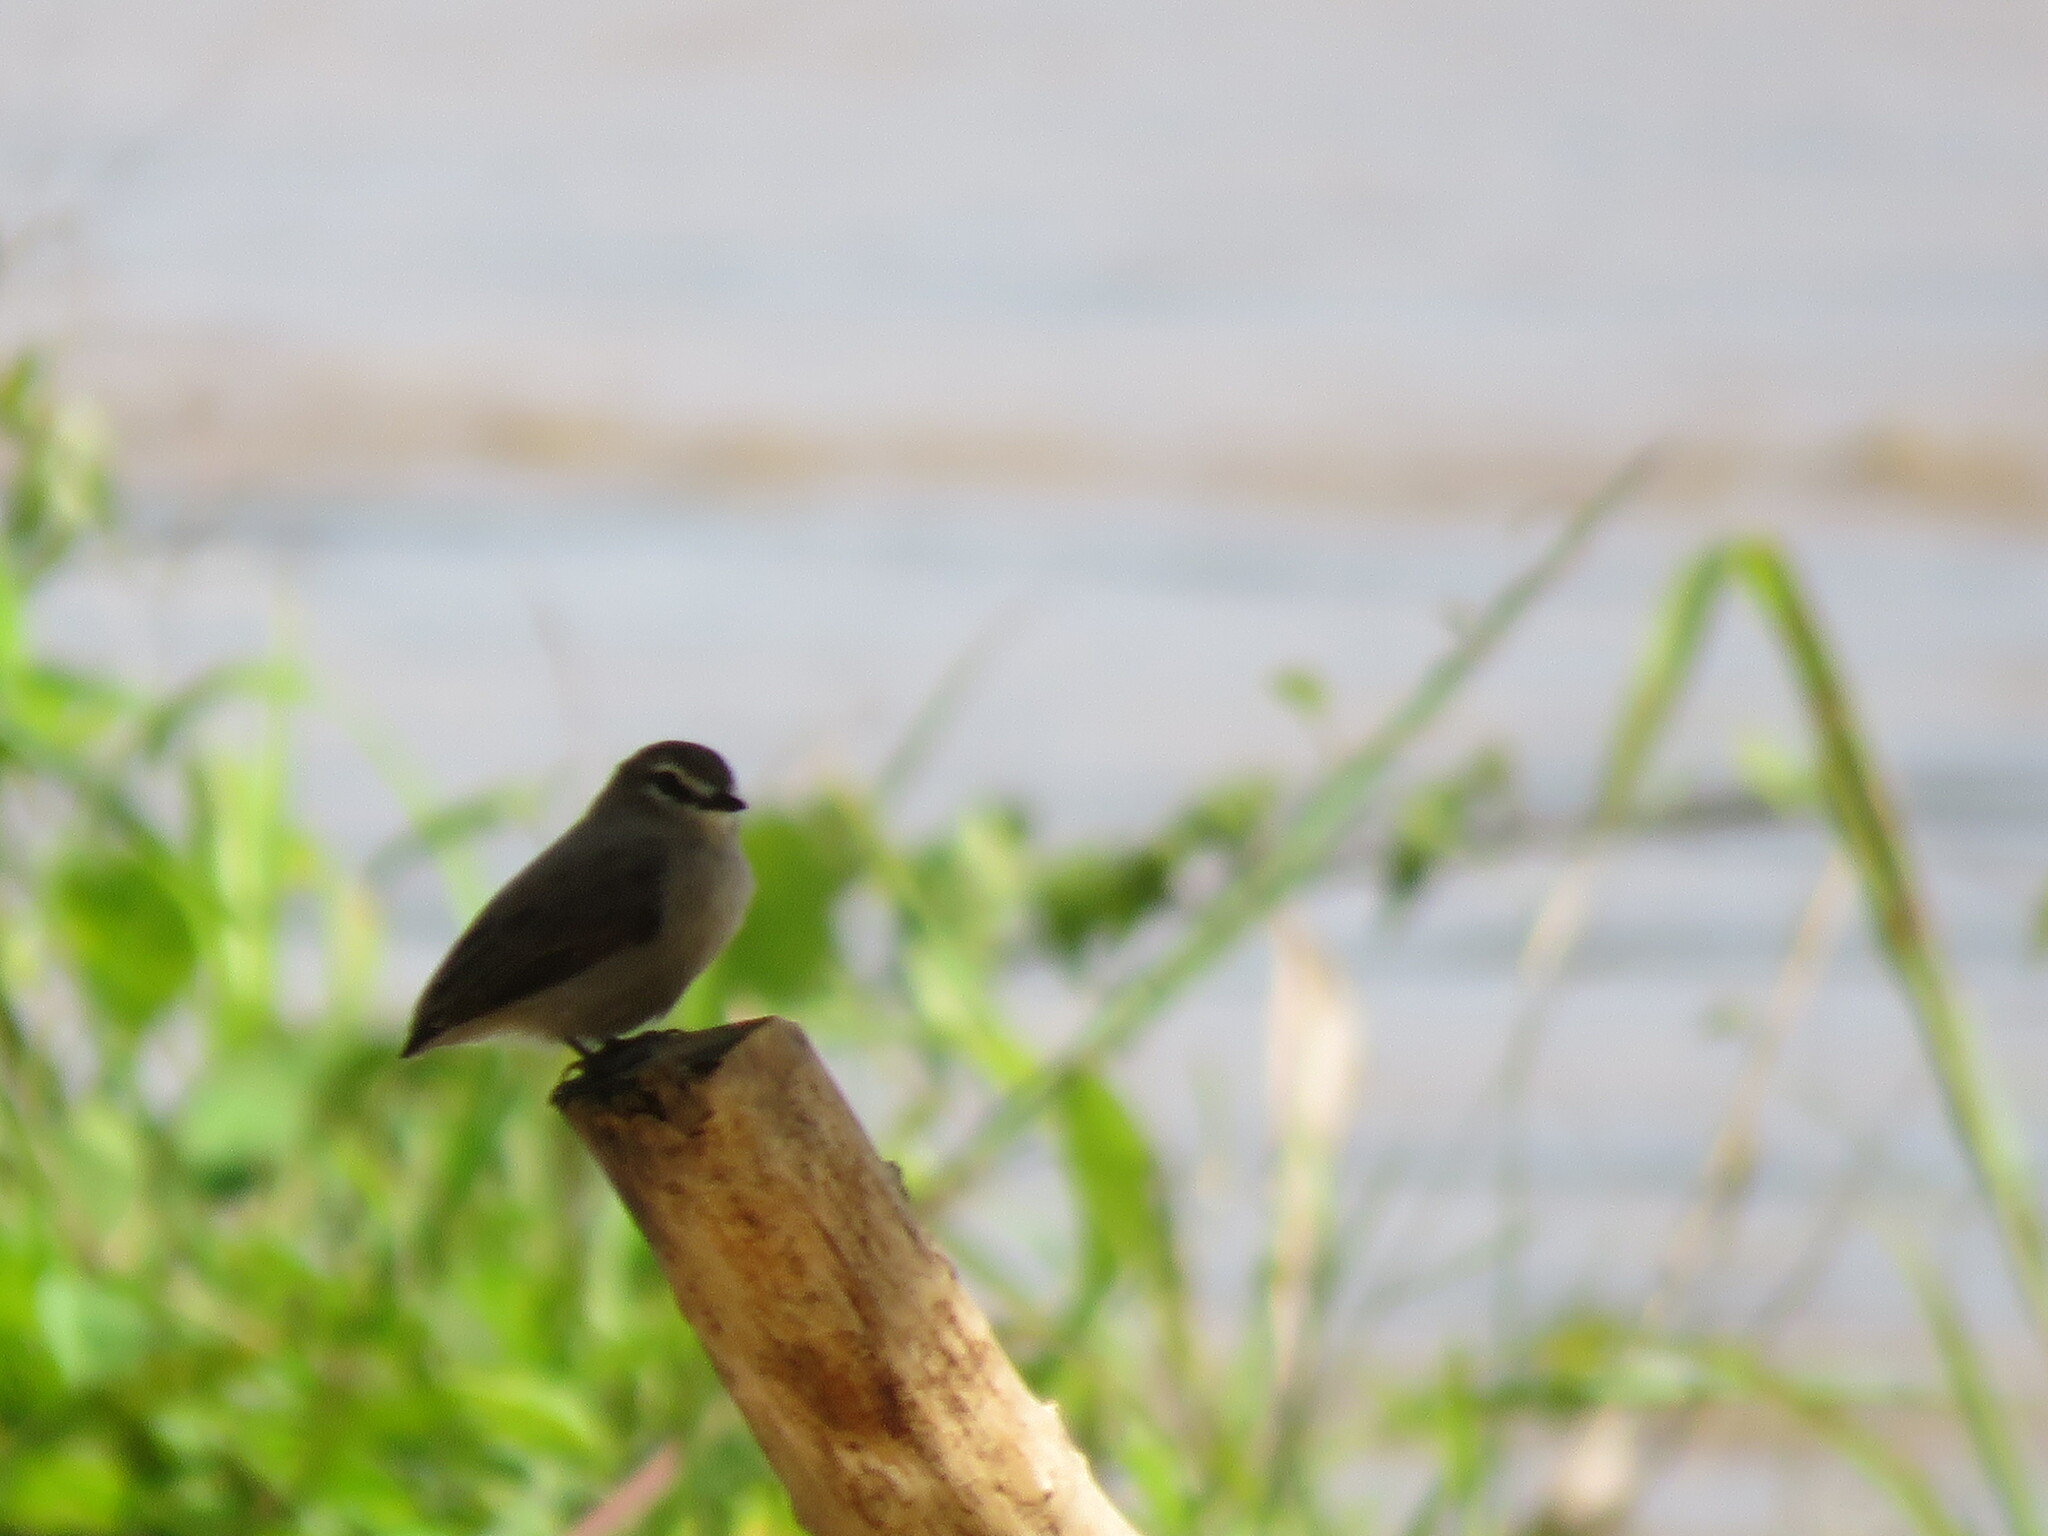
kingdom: Animalia
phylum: Chordata
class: Aves
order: Passeriformes
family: Tyrannidae
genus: Ochthornis
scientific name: Ochthornis littoralis
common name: Drab water tyrant
